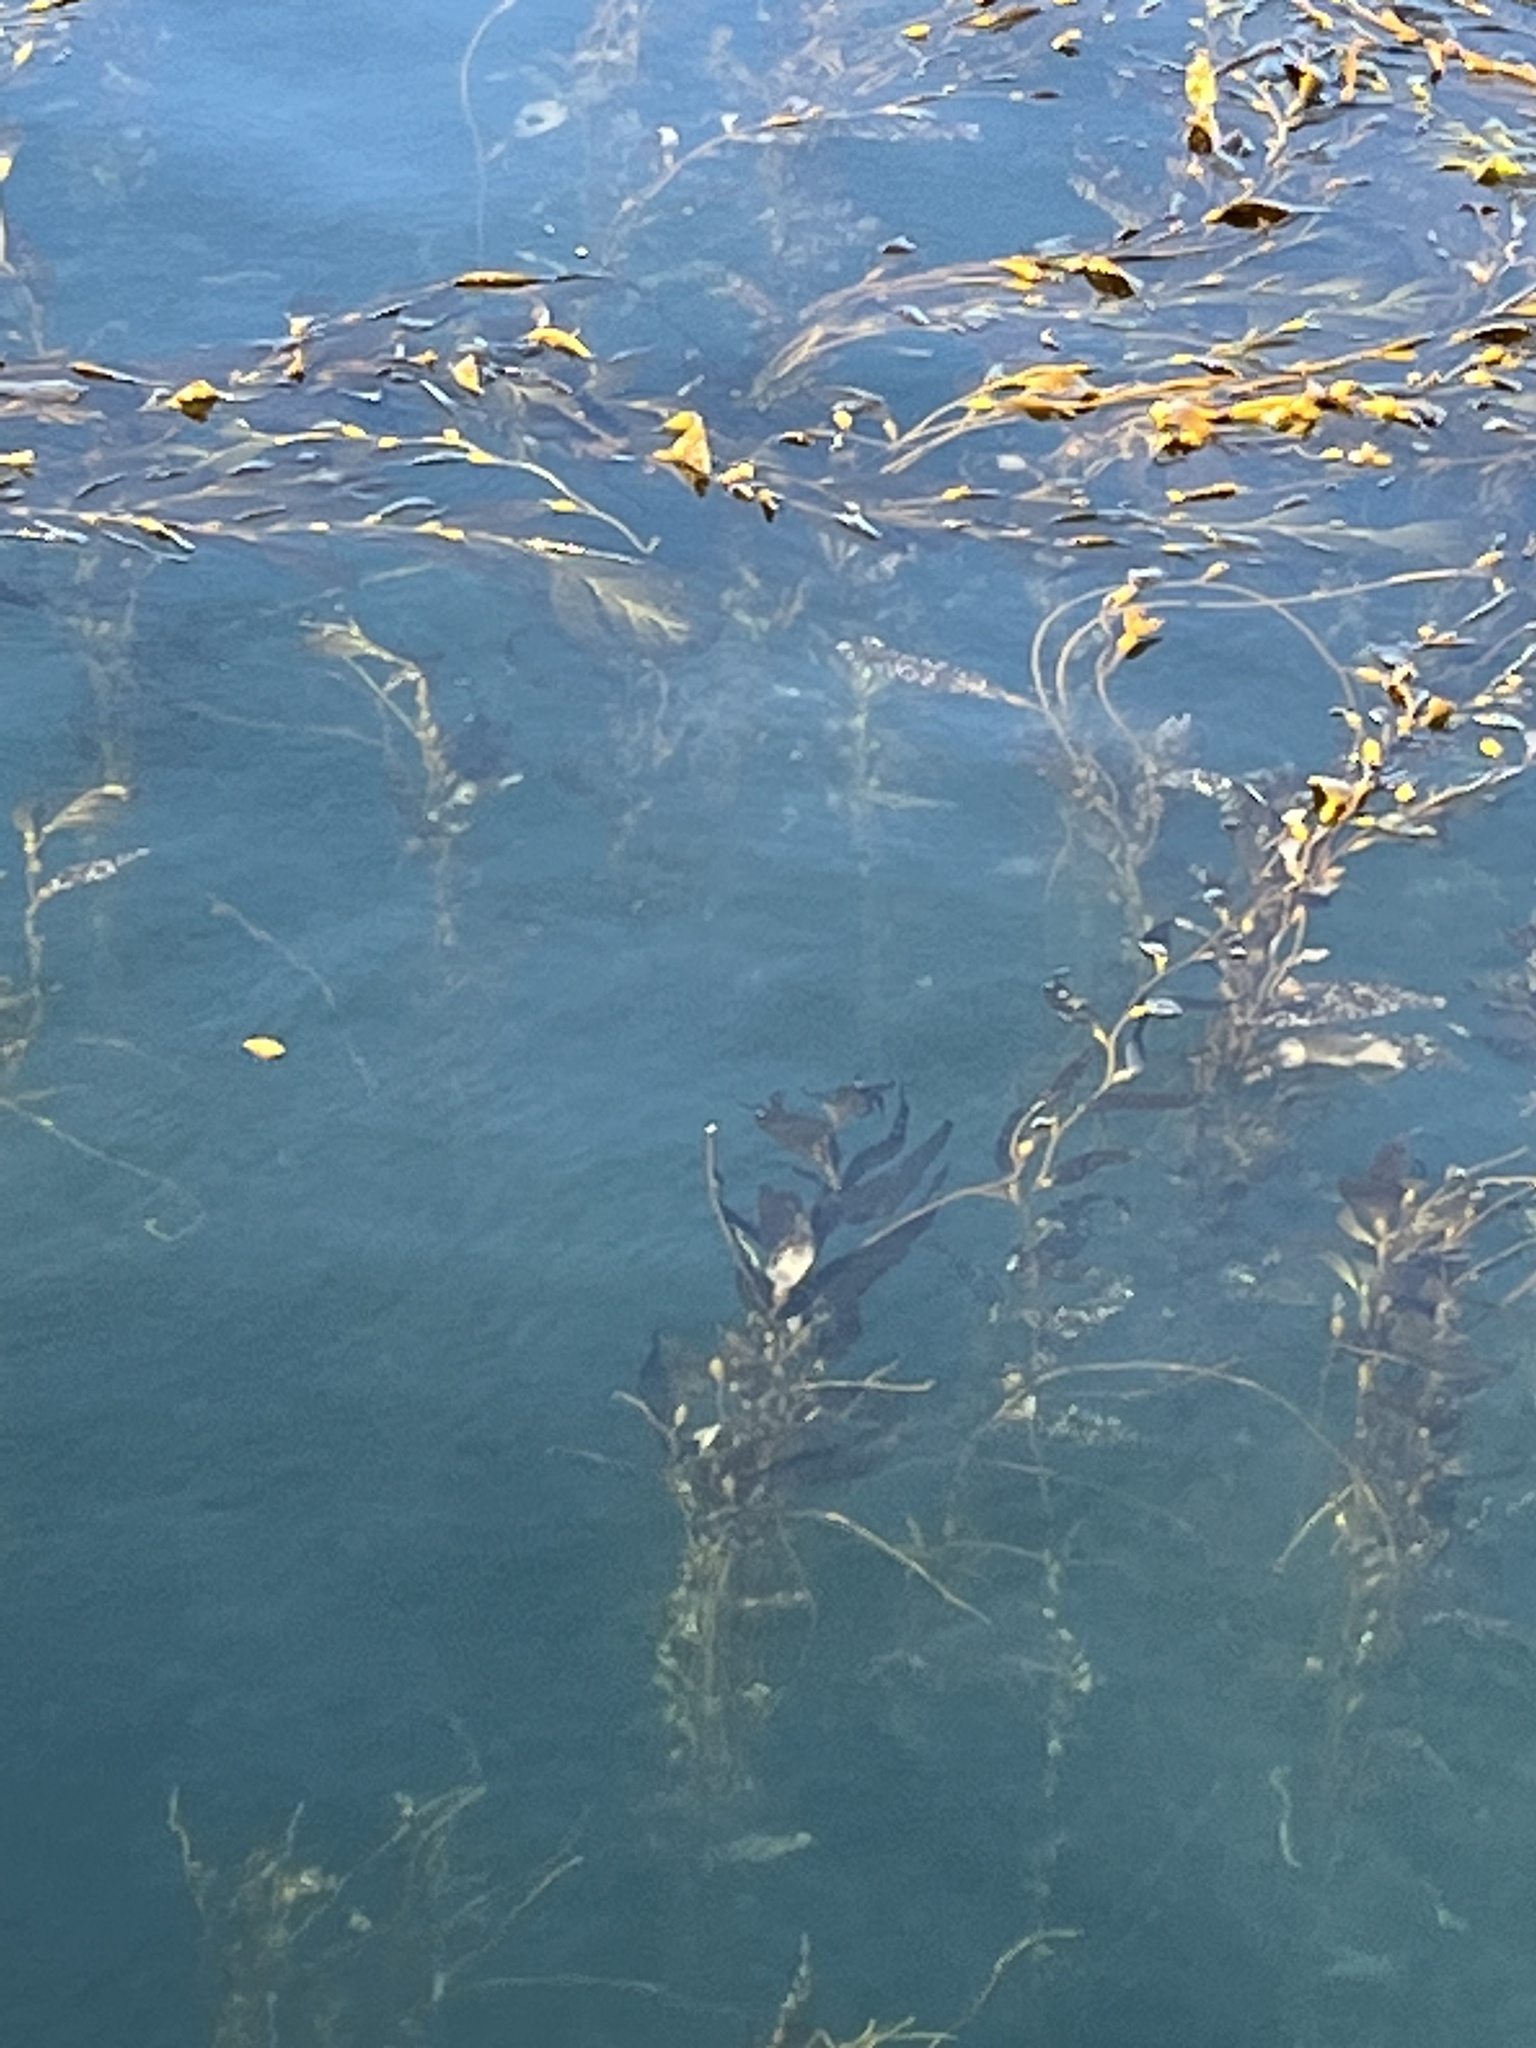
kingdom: Chromista
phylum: Ochrophyta
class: Phaeophyceae
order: Laminariales
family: Laminariaceae
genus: Macrocystis
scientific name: Macrocystis pyrifera
